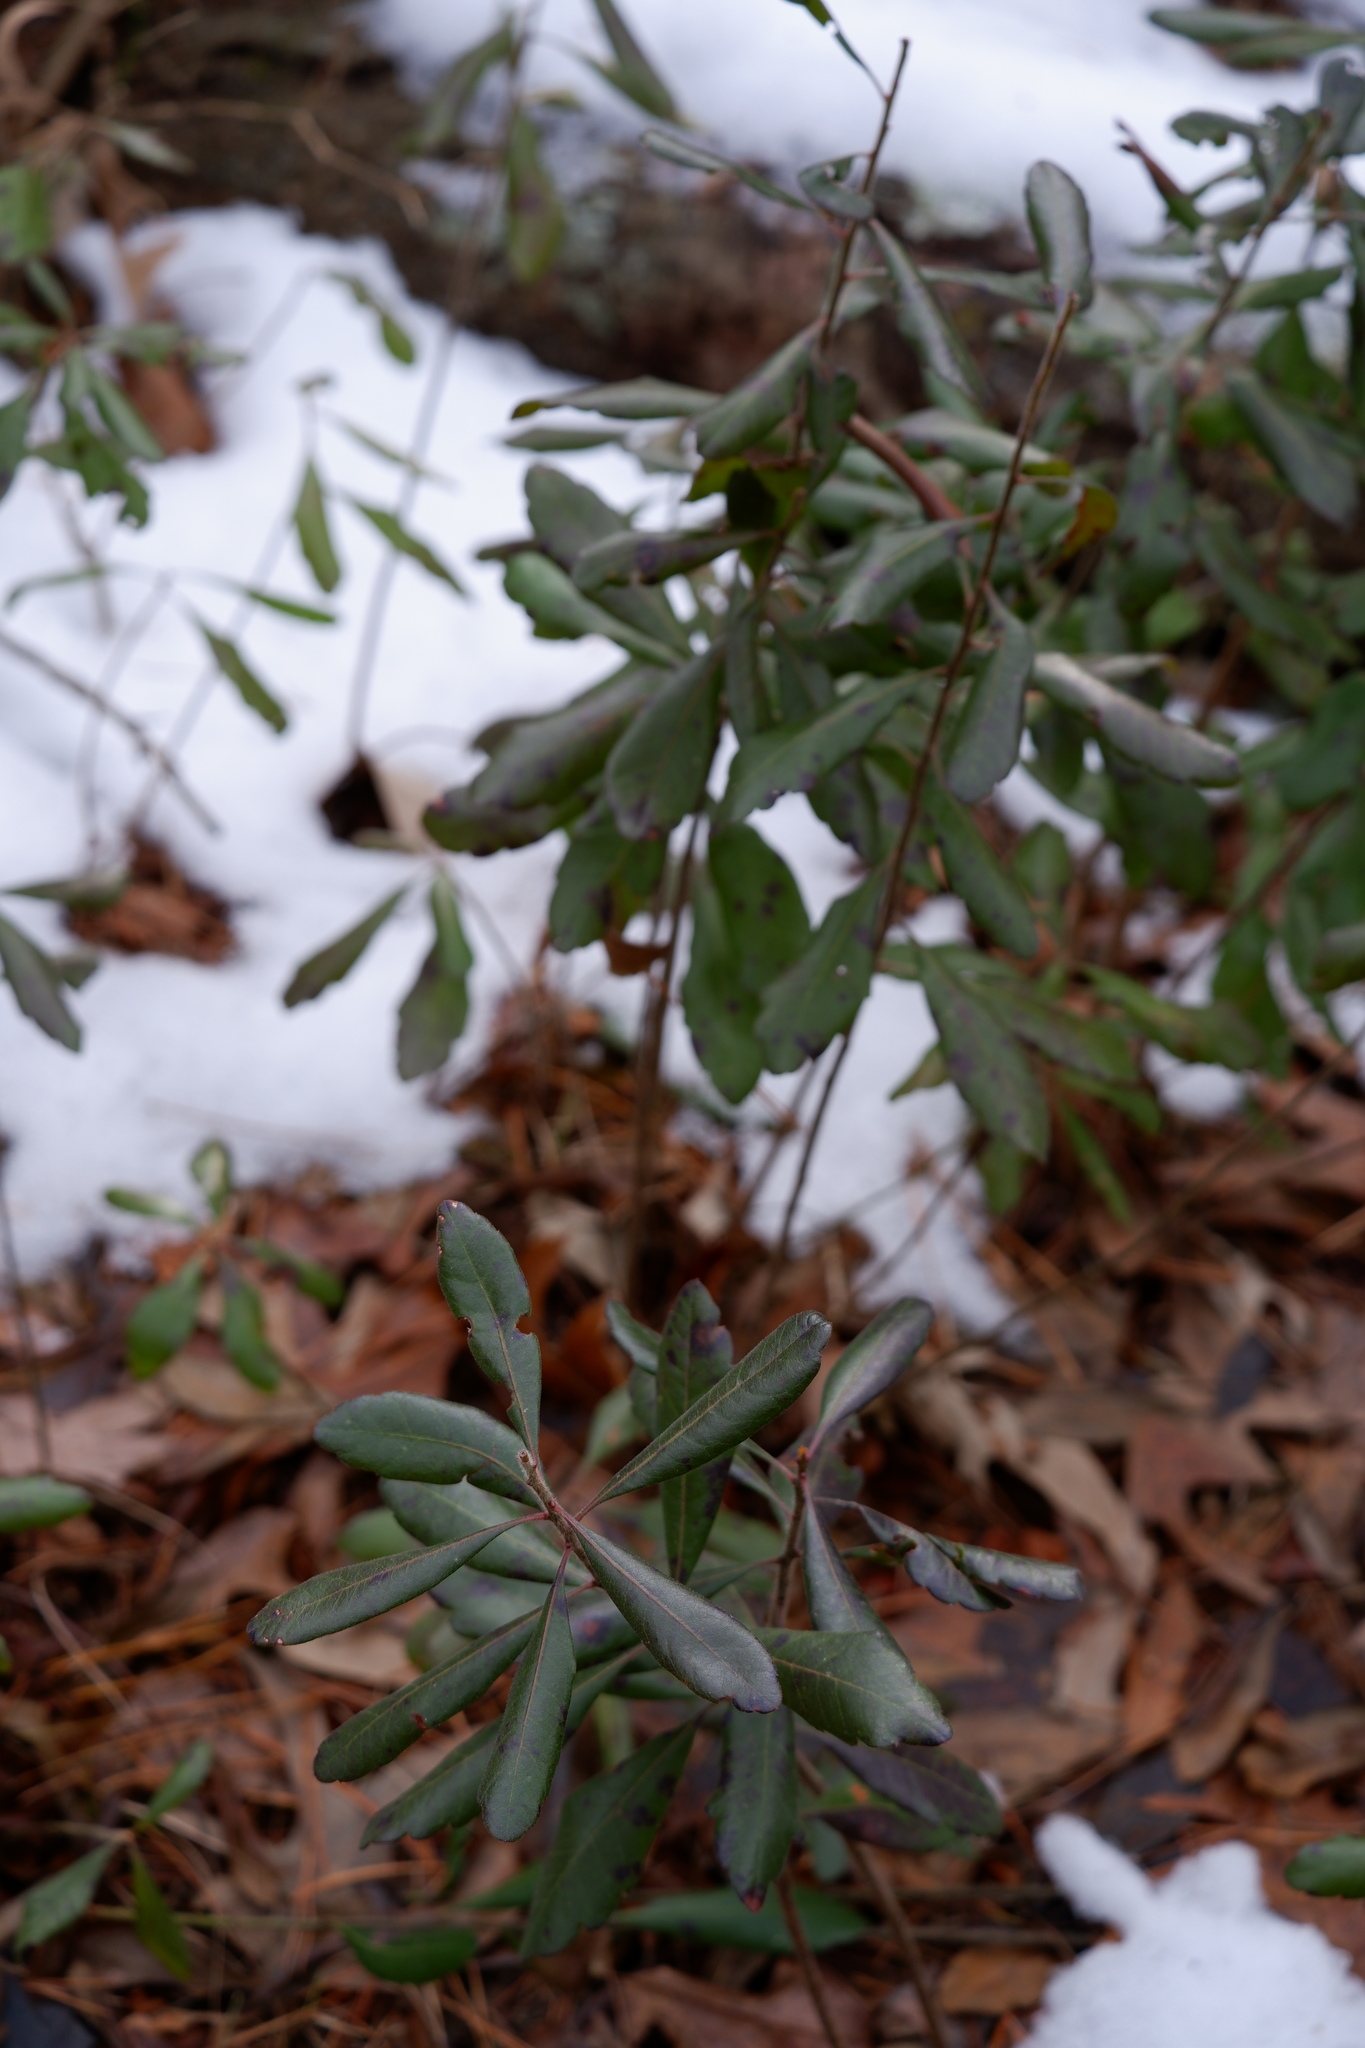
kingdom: Plantae
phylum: Tracheophyta
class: Magnoliopsida
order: Fagales
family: Myricaceae
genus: Morella
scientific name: Morella pensylvanica
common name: Northern bayberry
